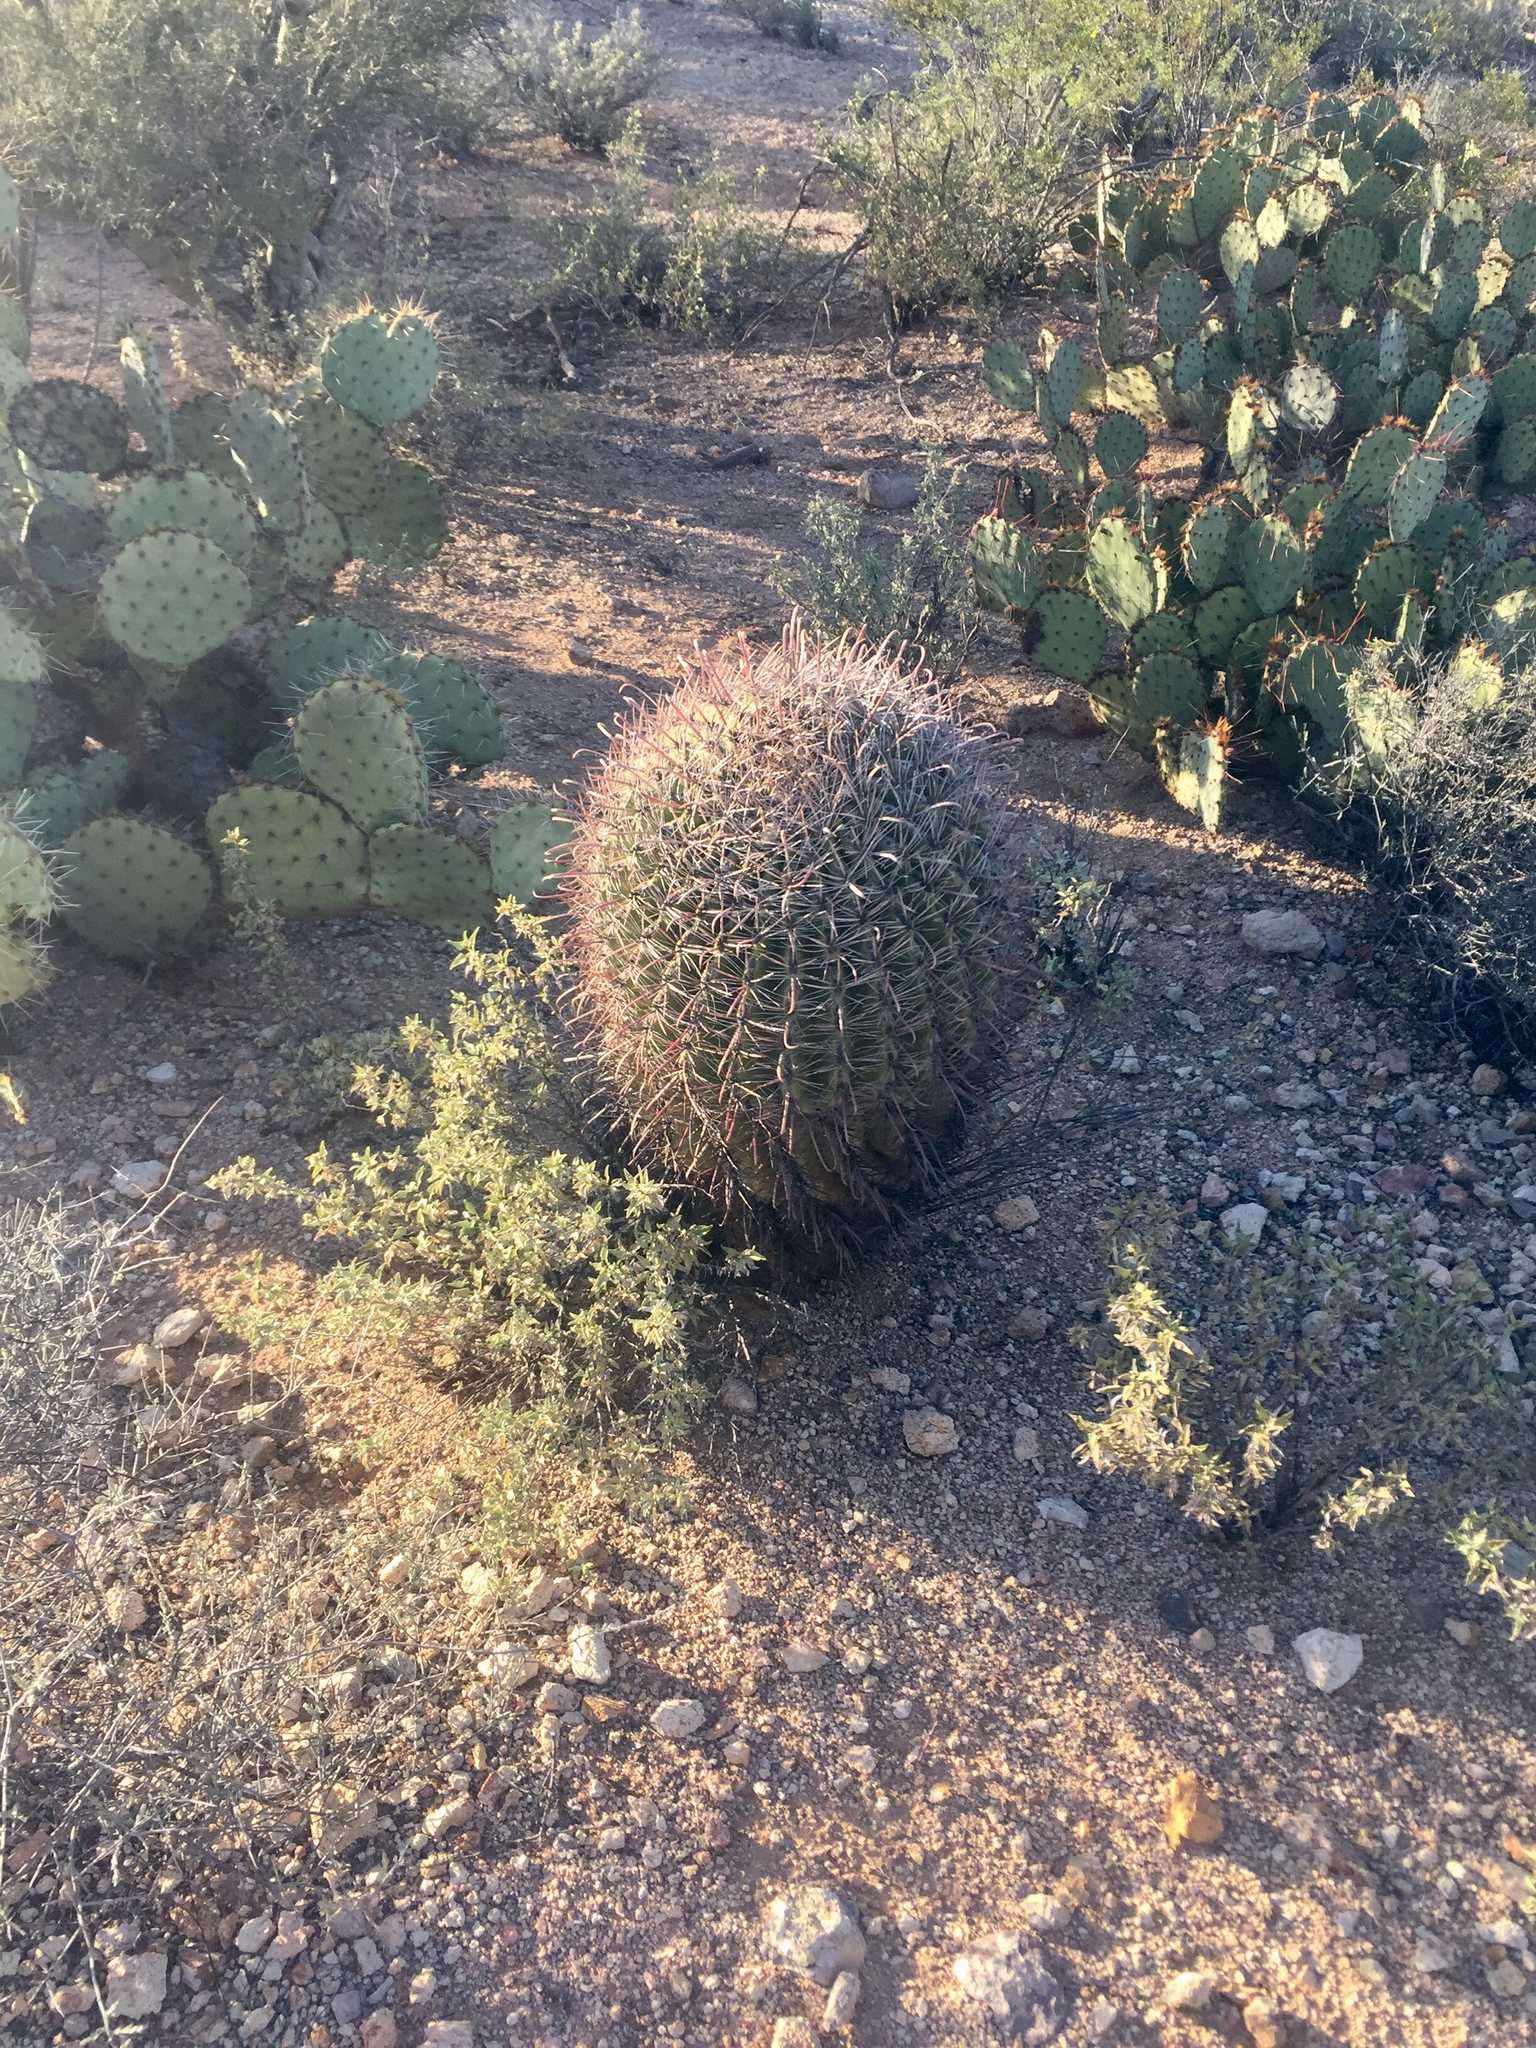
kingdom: Plantae
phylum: Tracheophyta
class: Magnoliopsida
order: Caryophyllales
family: Cactaceae
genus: Ferocactus
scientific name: Ferocactus wislizeni
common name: Candy barrel cactus
